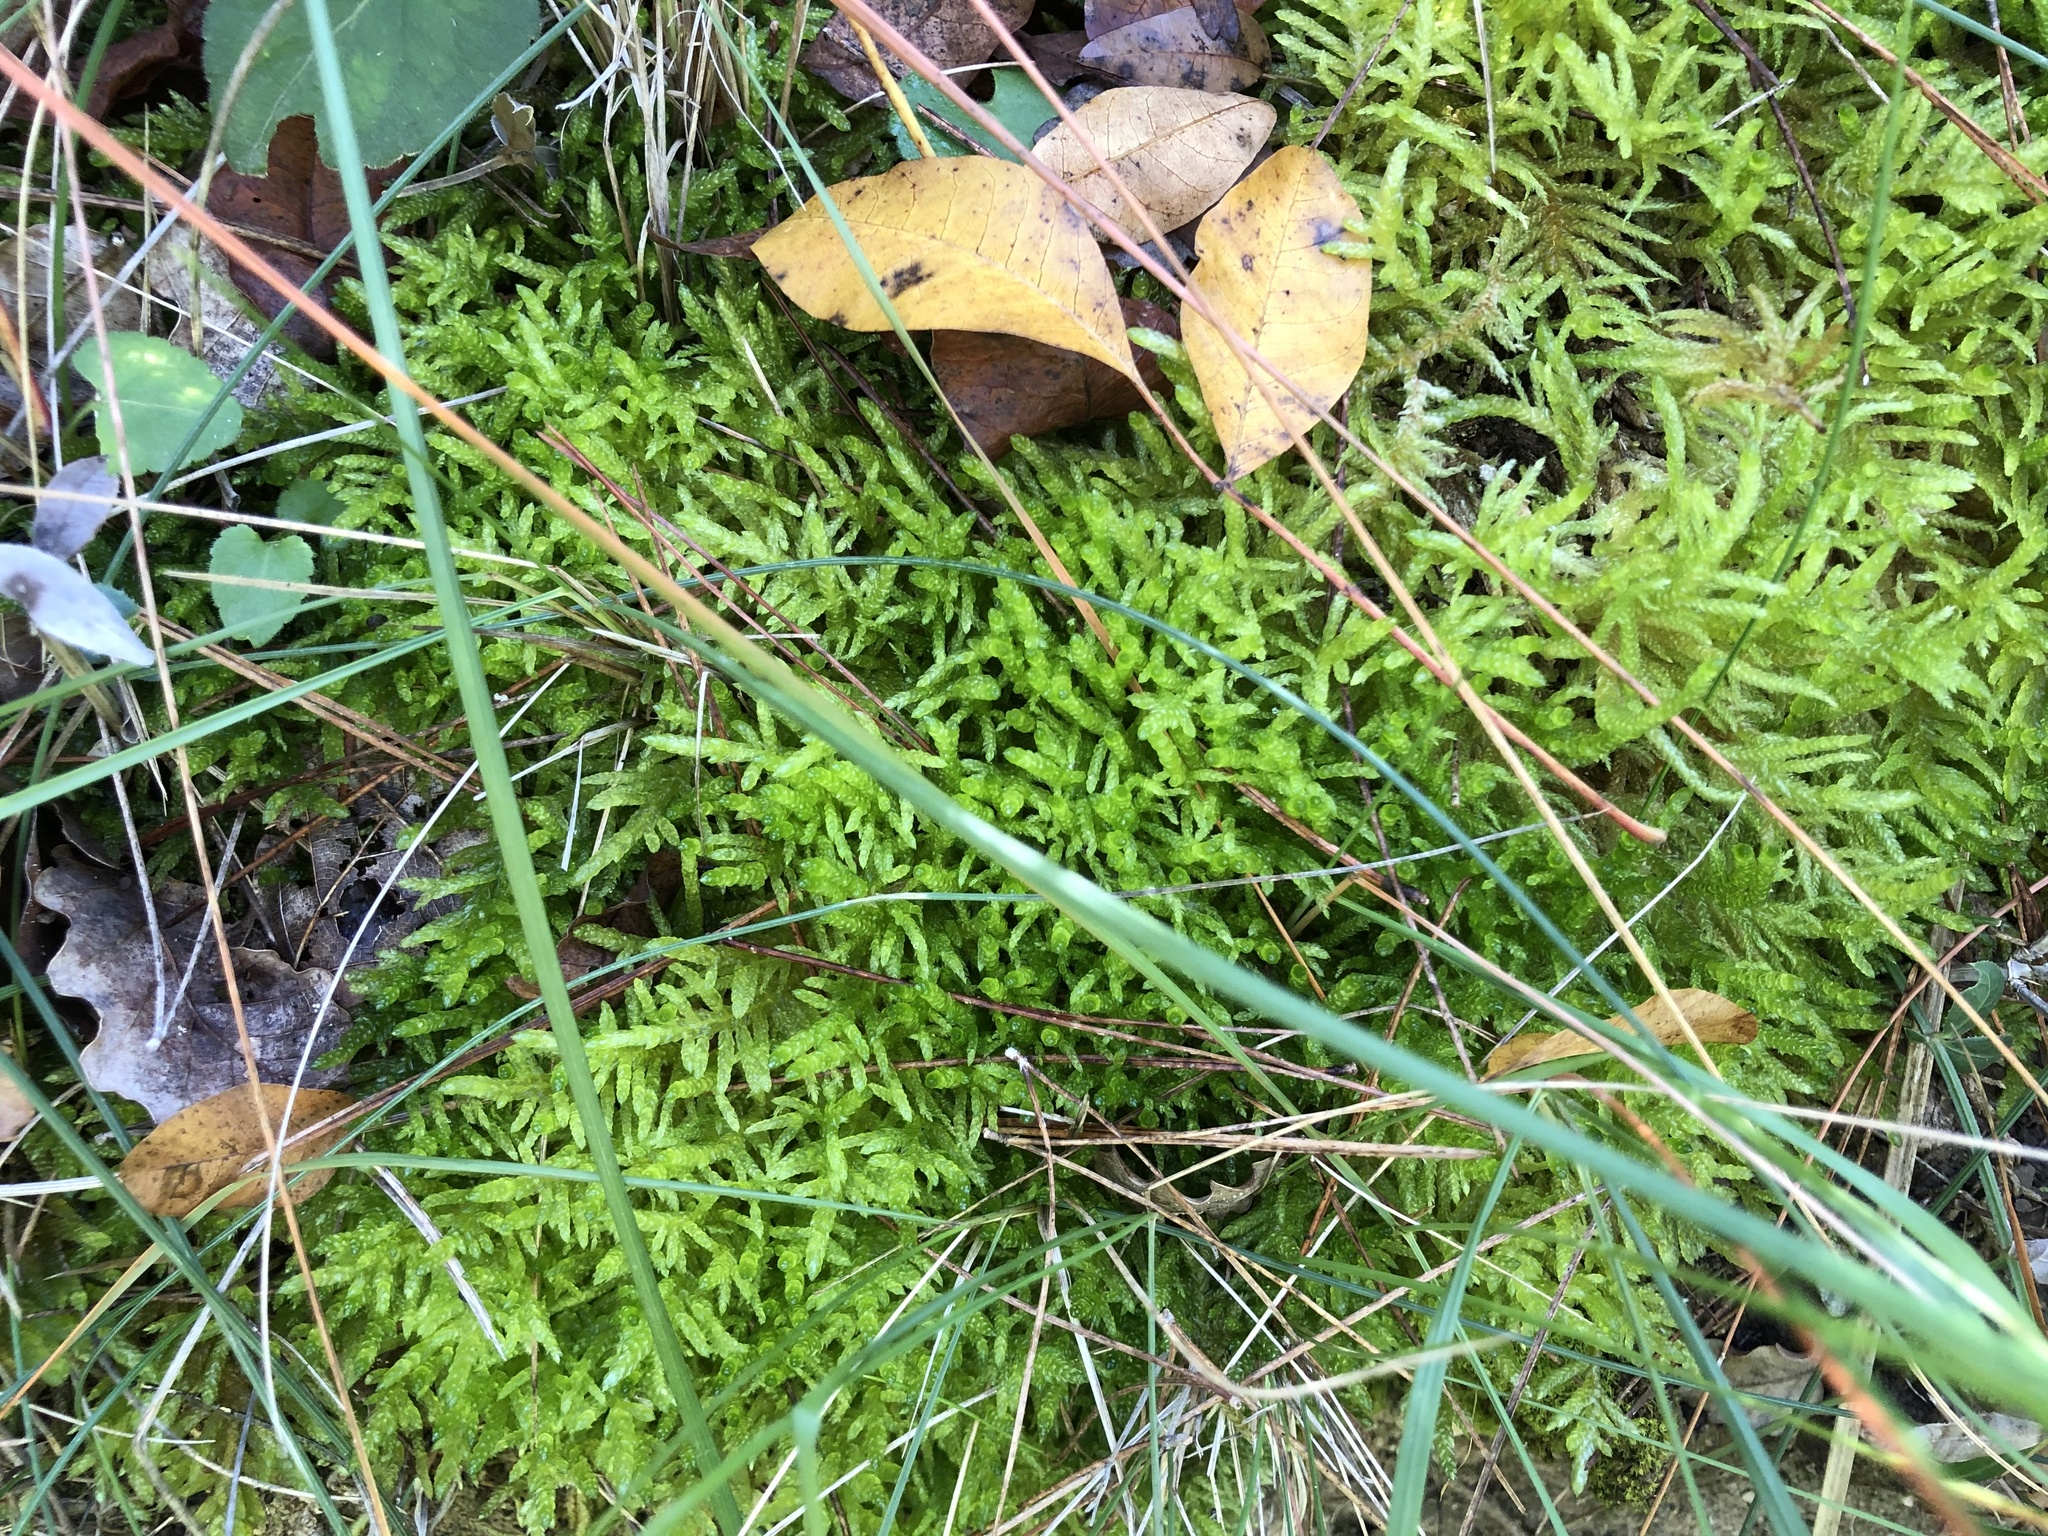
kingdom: Plantae
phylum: Bryophyta
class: Bryopsida
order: Hypnales
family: Brachytheciaceae
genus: Pseudoscleropodium
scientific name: Pseudoscleropodium purum
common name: Neat feather-moss
